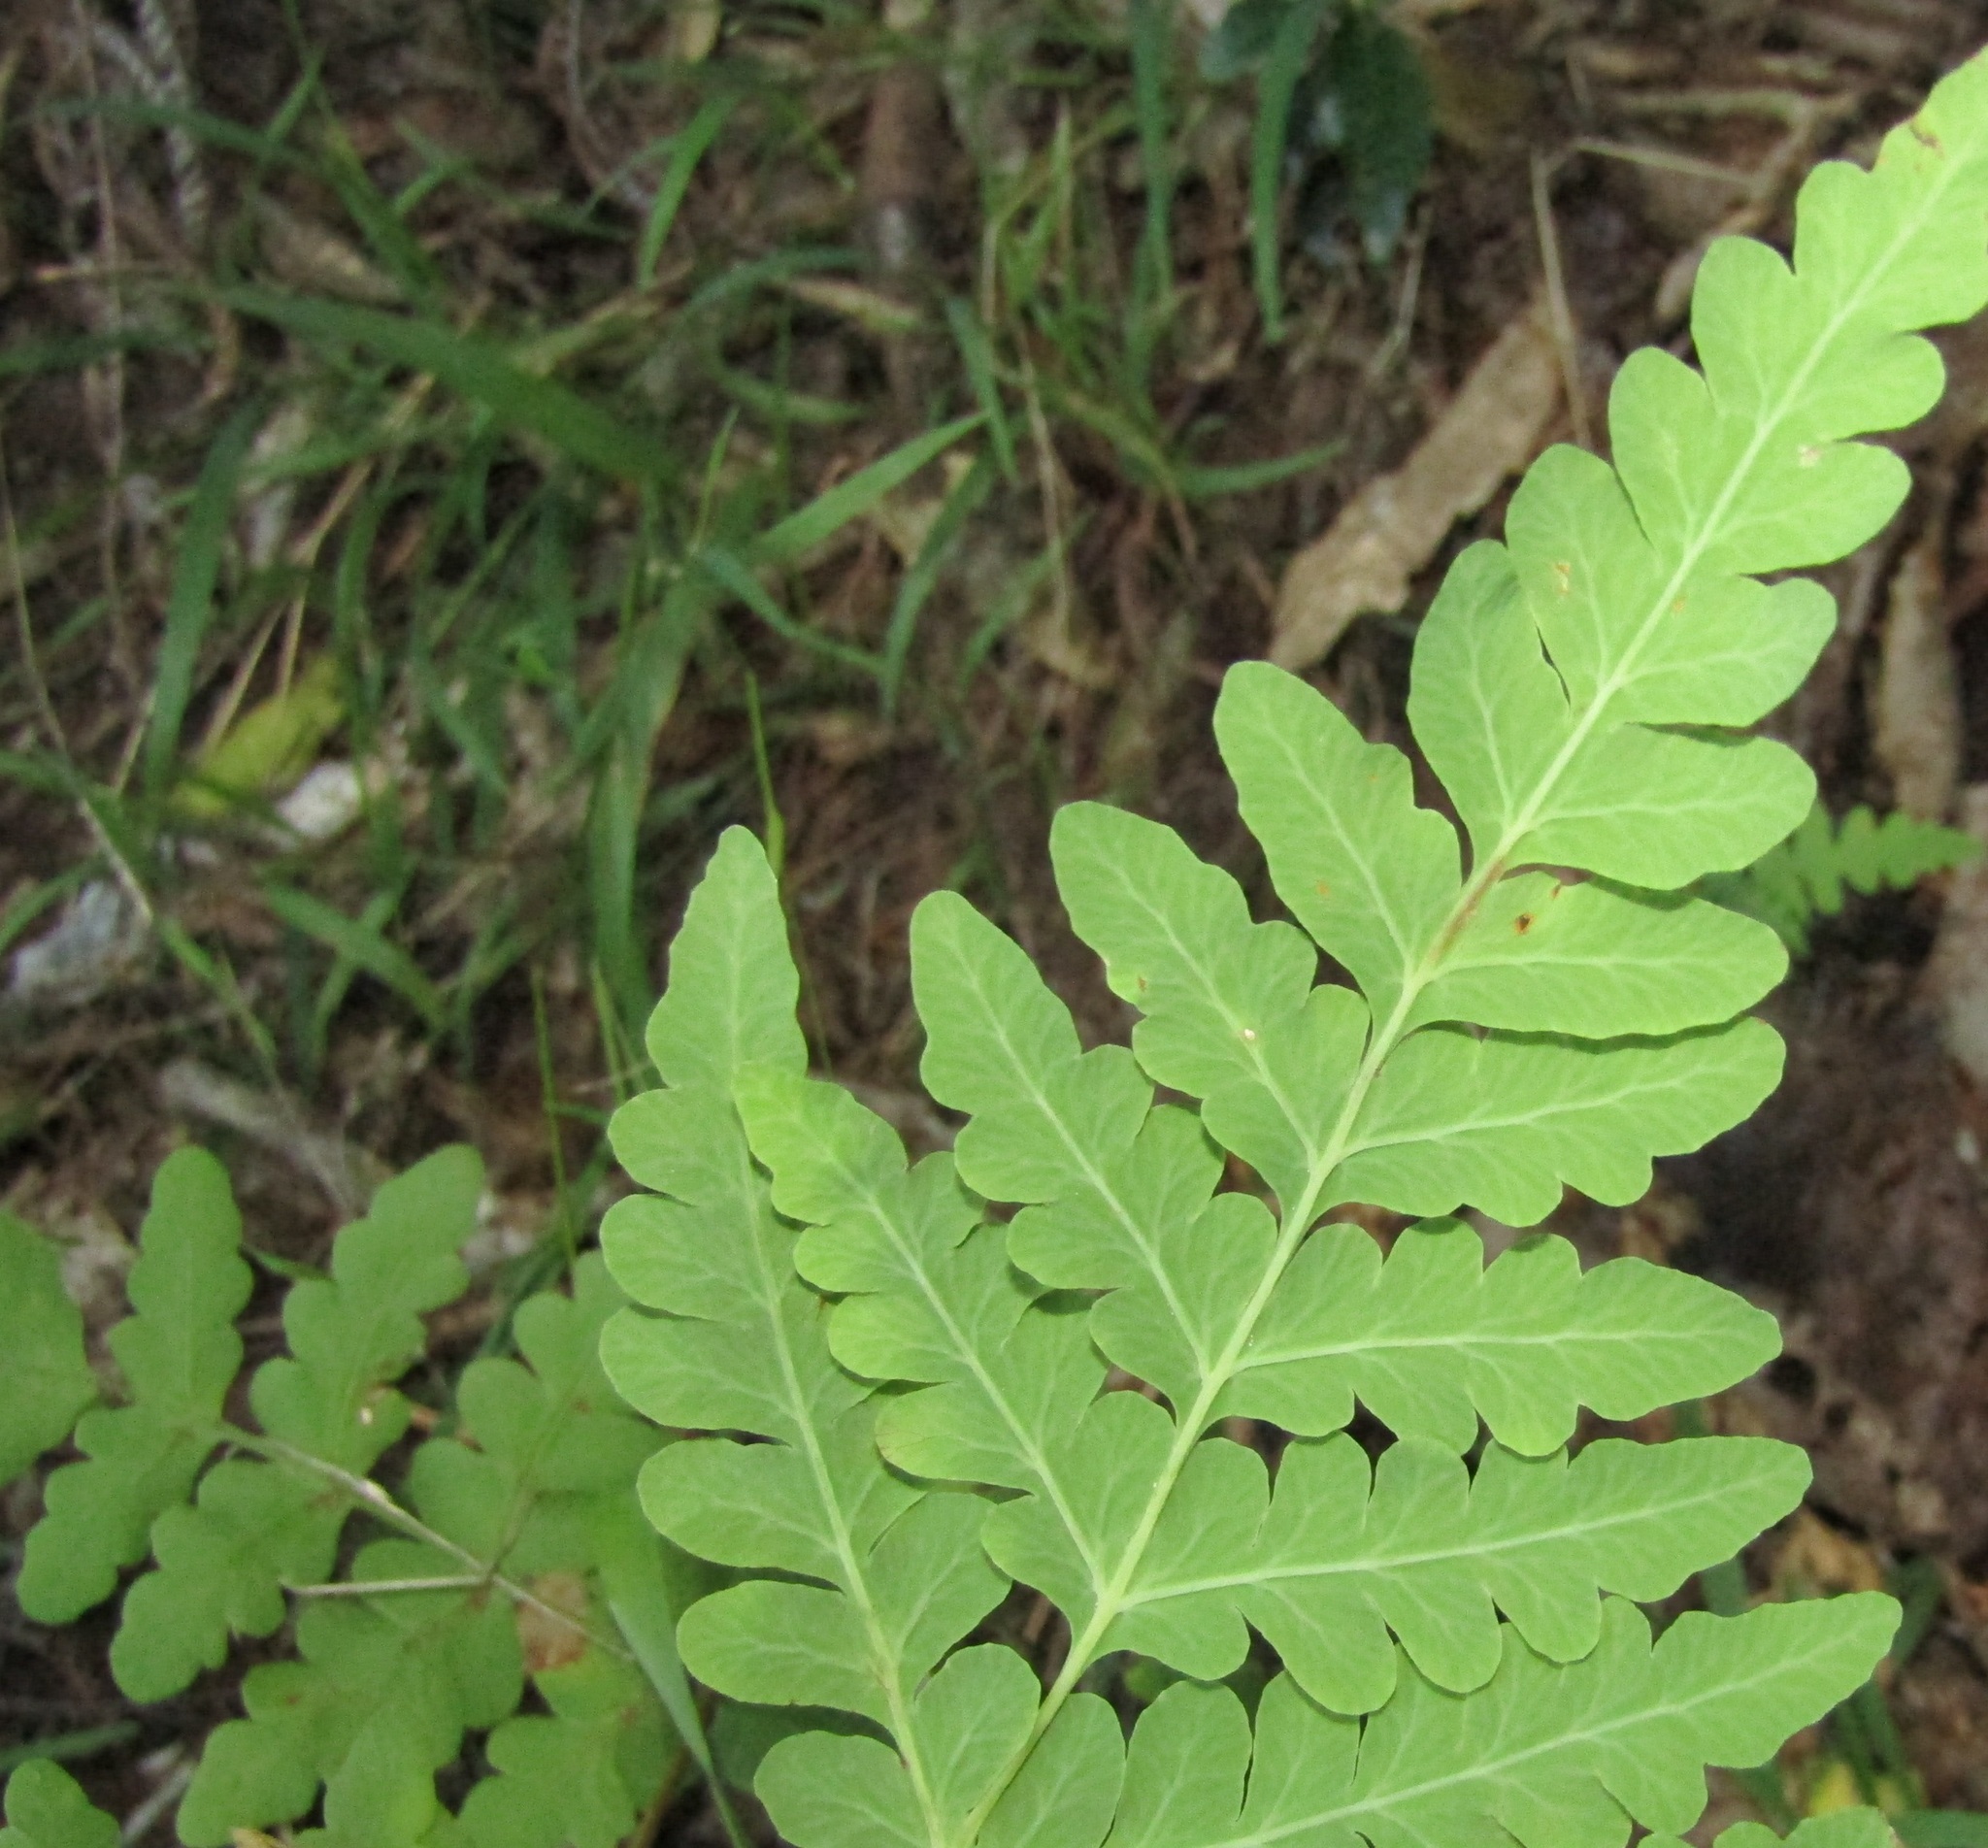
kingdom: Plantae
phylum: Tracheophyta
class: Polypodiopsida
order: Polypodiales
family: Dennstaedtiaceae
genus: Histiopteris
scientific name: Histiopteris incisa
